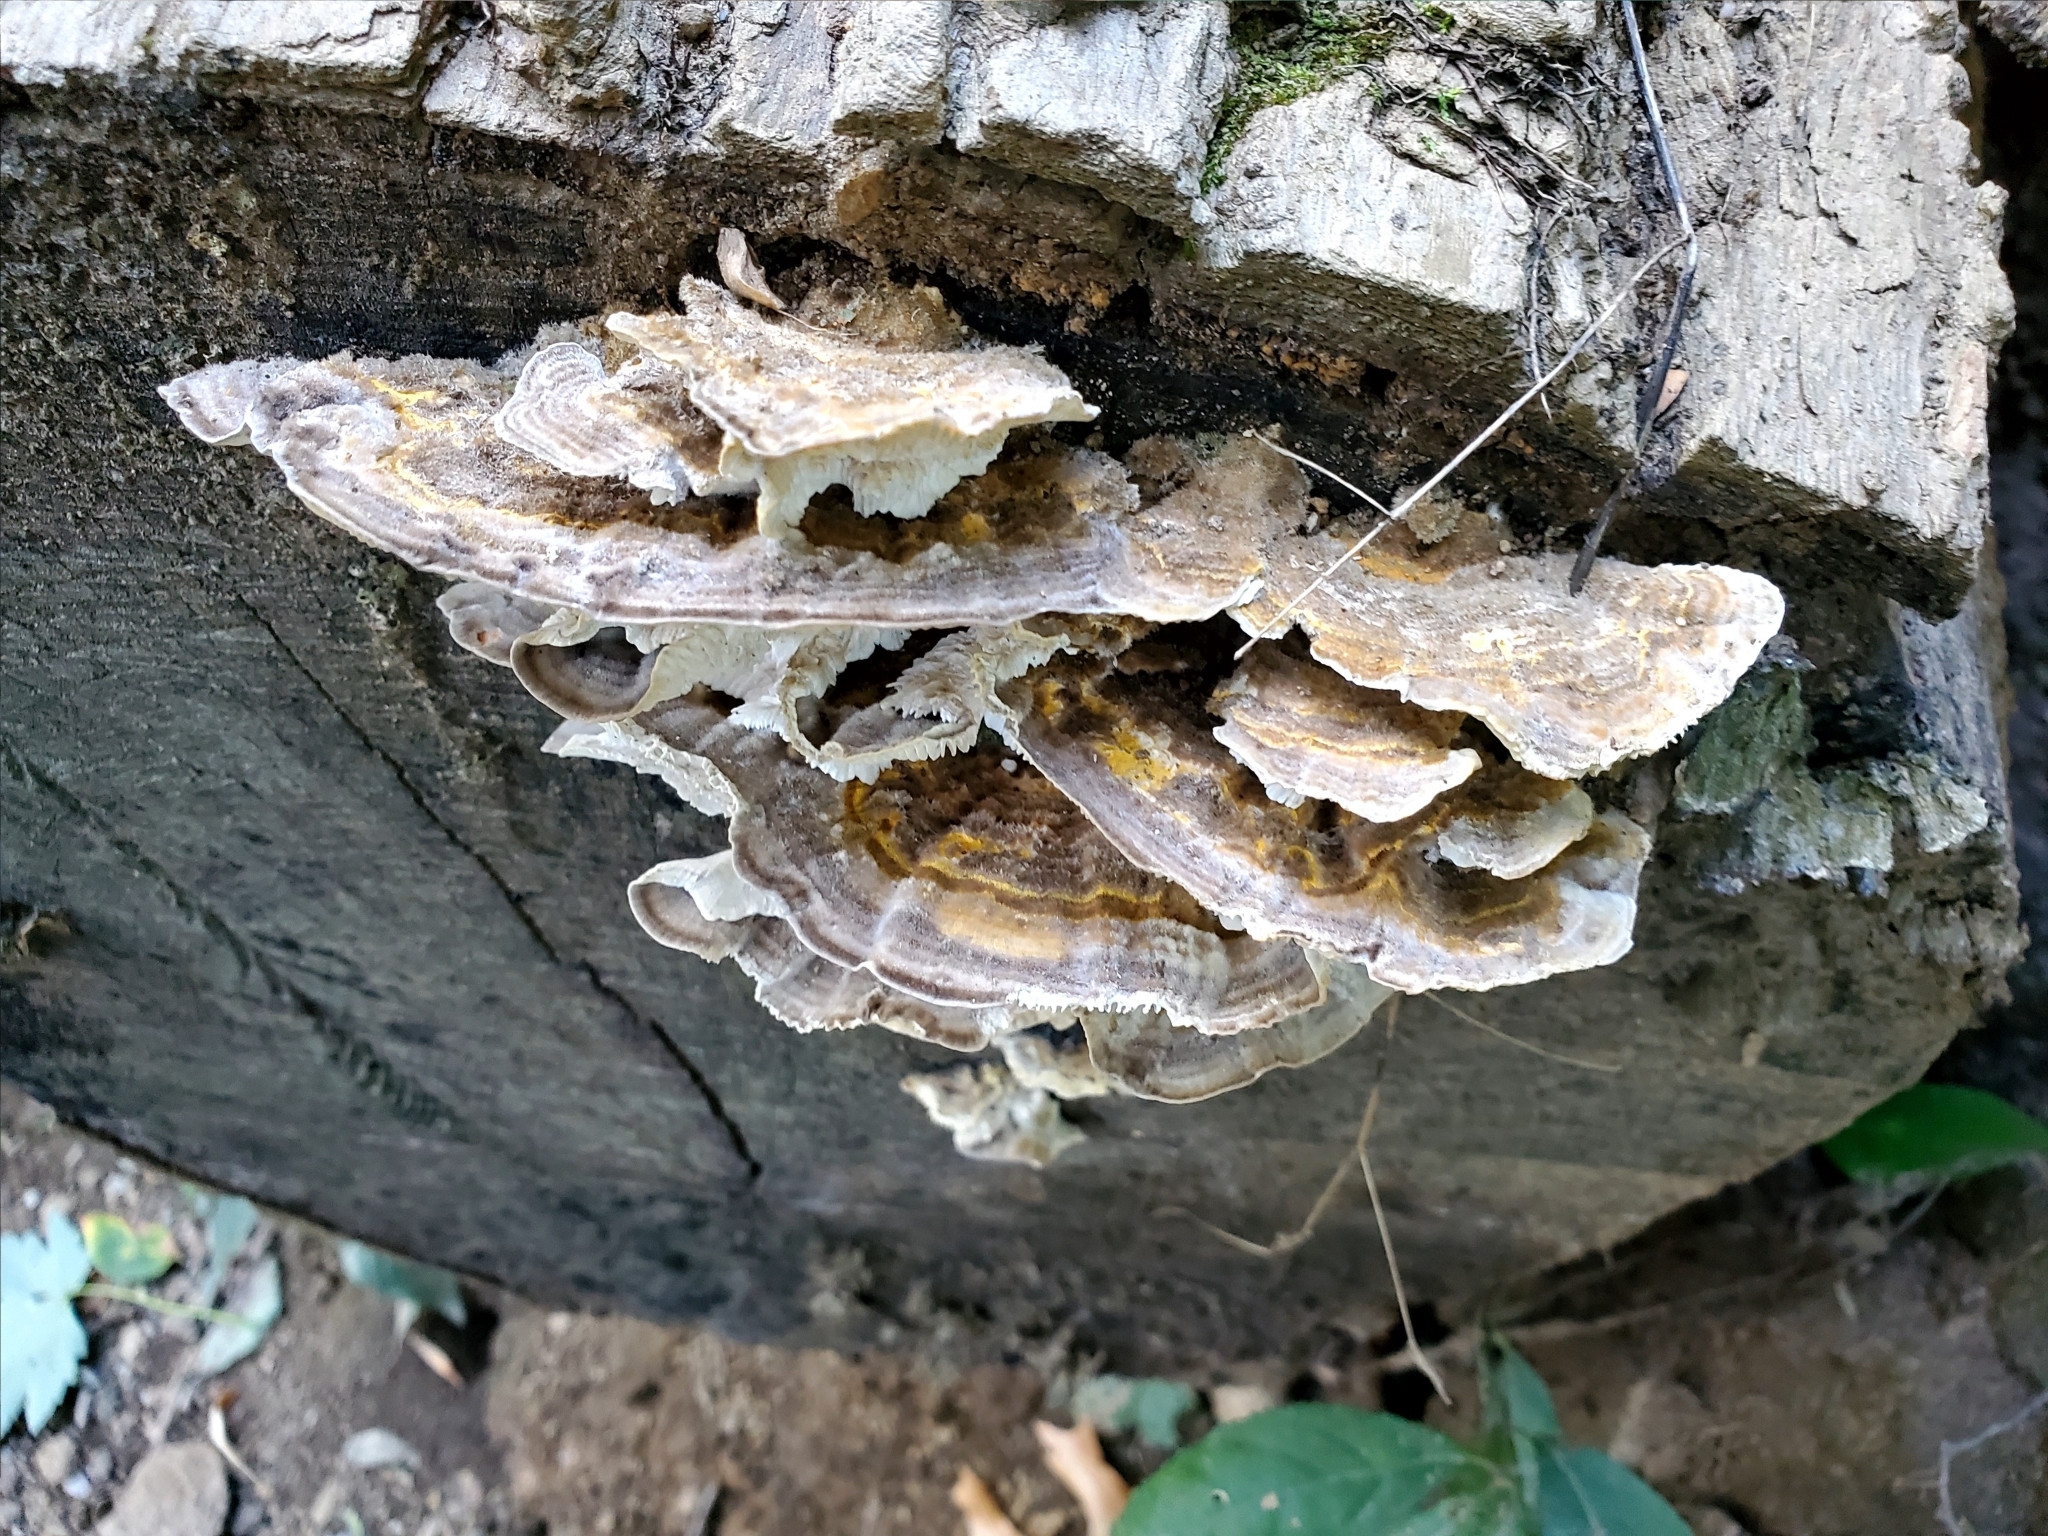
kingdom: Fungi
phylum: Basidiomycota
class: Agaricomycetes
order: Polyporales
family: Polyporaceae
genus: Lenzites
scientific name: Lenzites betulinus
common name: Birch mazegill
